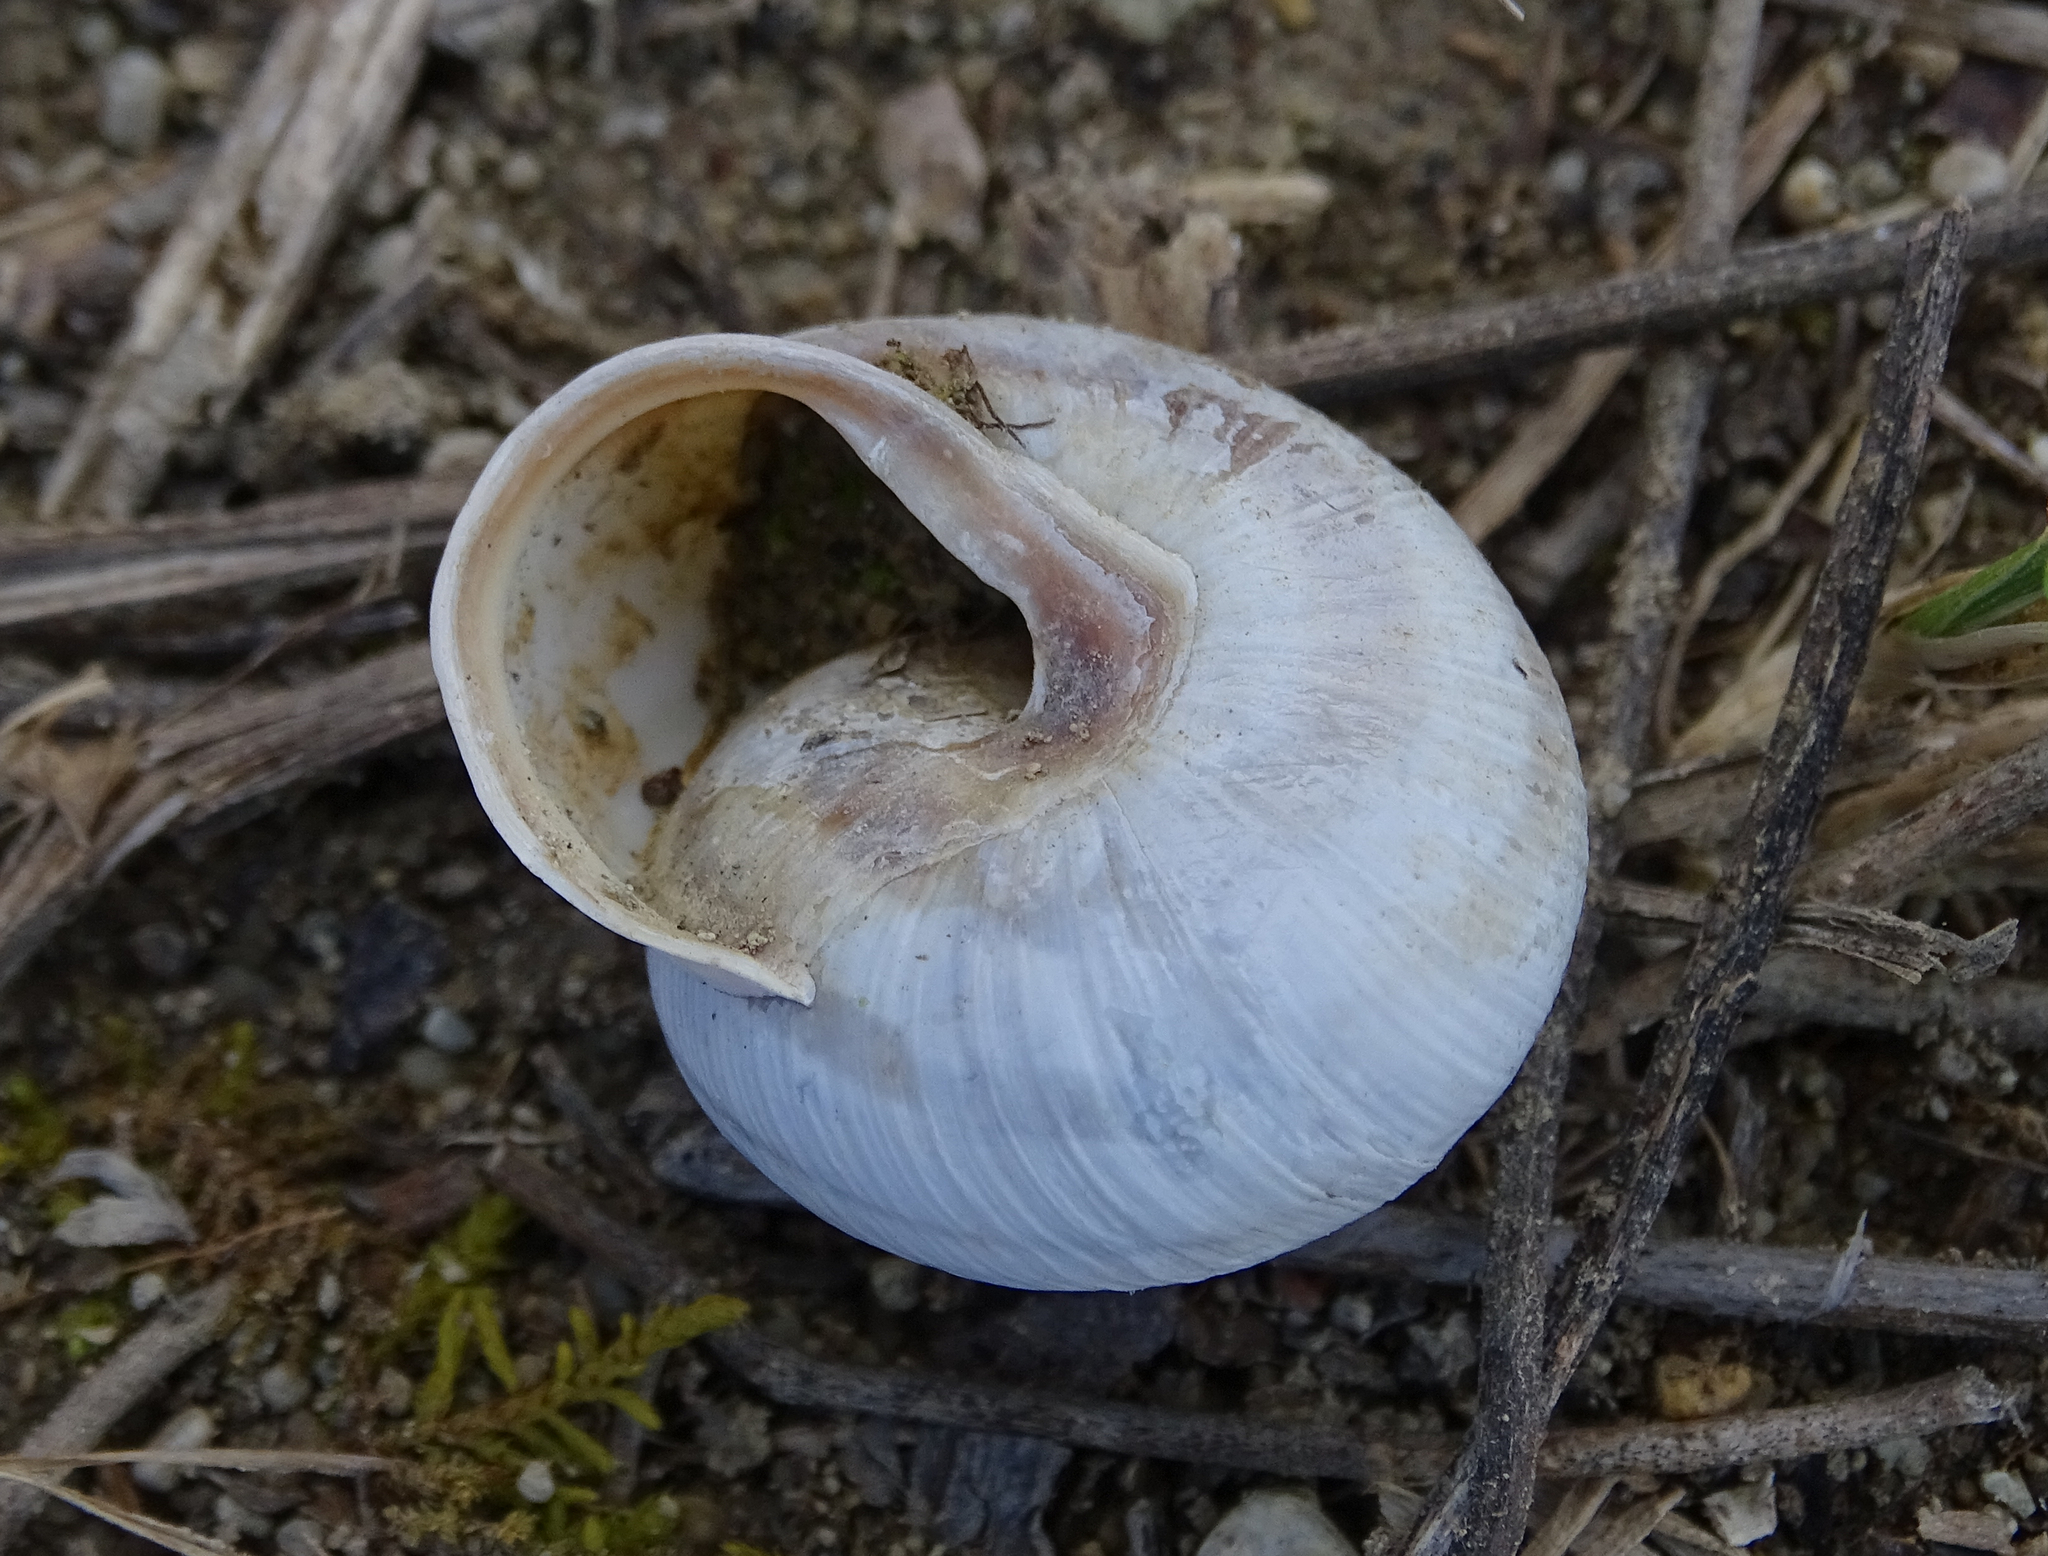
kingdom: Animalia
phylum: Mollusca
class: Gastropoda
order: Stylommatophora
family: Helicidae
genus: Caucasotachea
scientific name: Caucasotachea vindobonensis
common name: European helicid land snail
